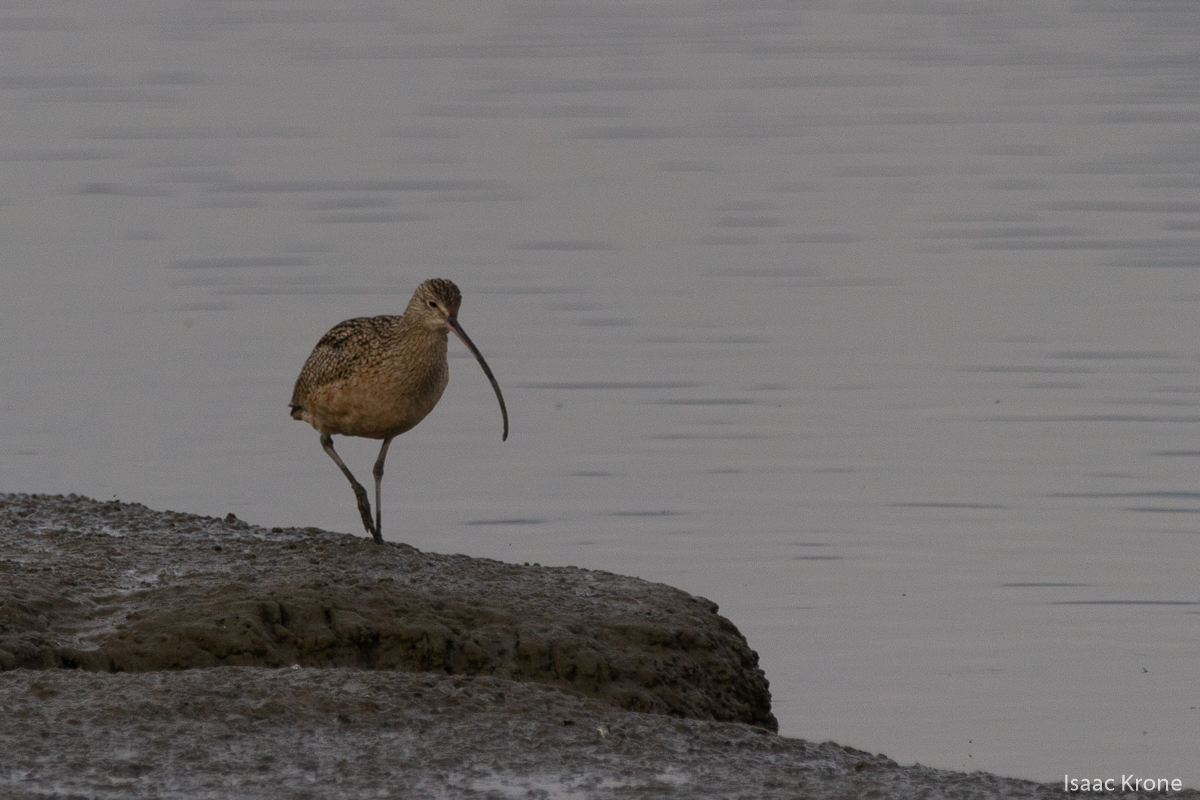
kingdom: Animalia
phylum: Chordata
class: Aves
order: Charadriiformes
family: Scolopacidae
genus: Numenius
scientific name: Numenius americanus
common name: Long-billed curlew
